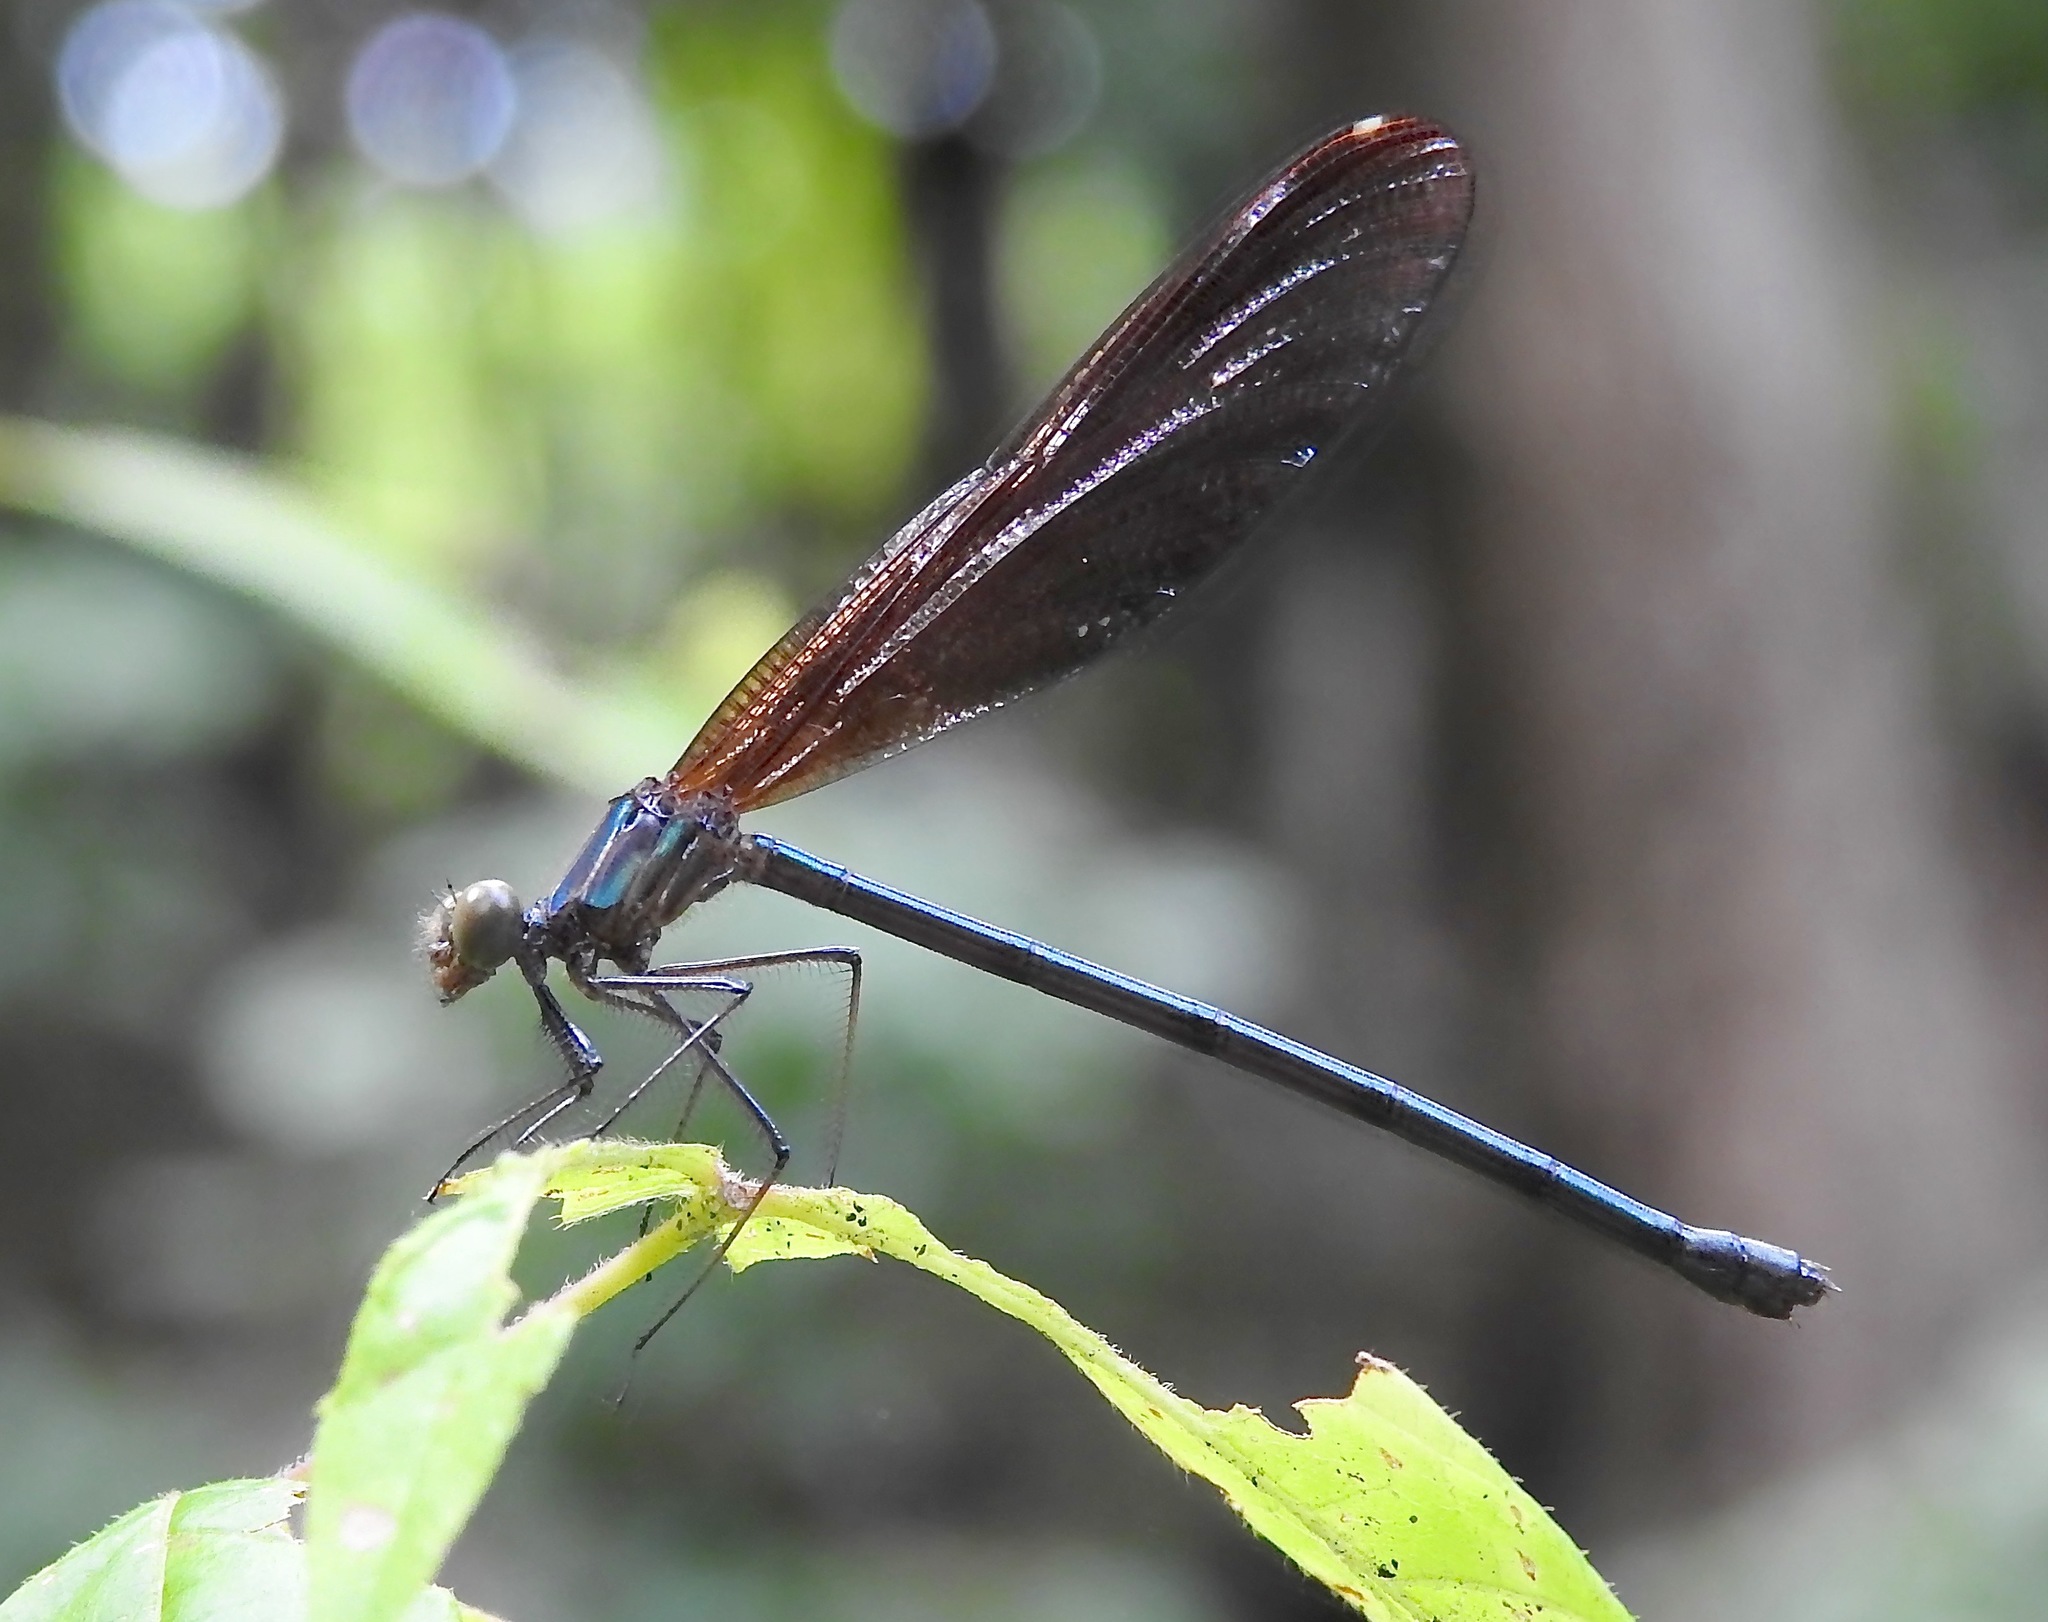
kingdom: Animalia
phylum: Arthropoda
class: Insecta
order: Odonata
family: Calopterygidae
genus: Hetaerina
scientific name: Hetaerina titia
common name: Smoky rubyspot
